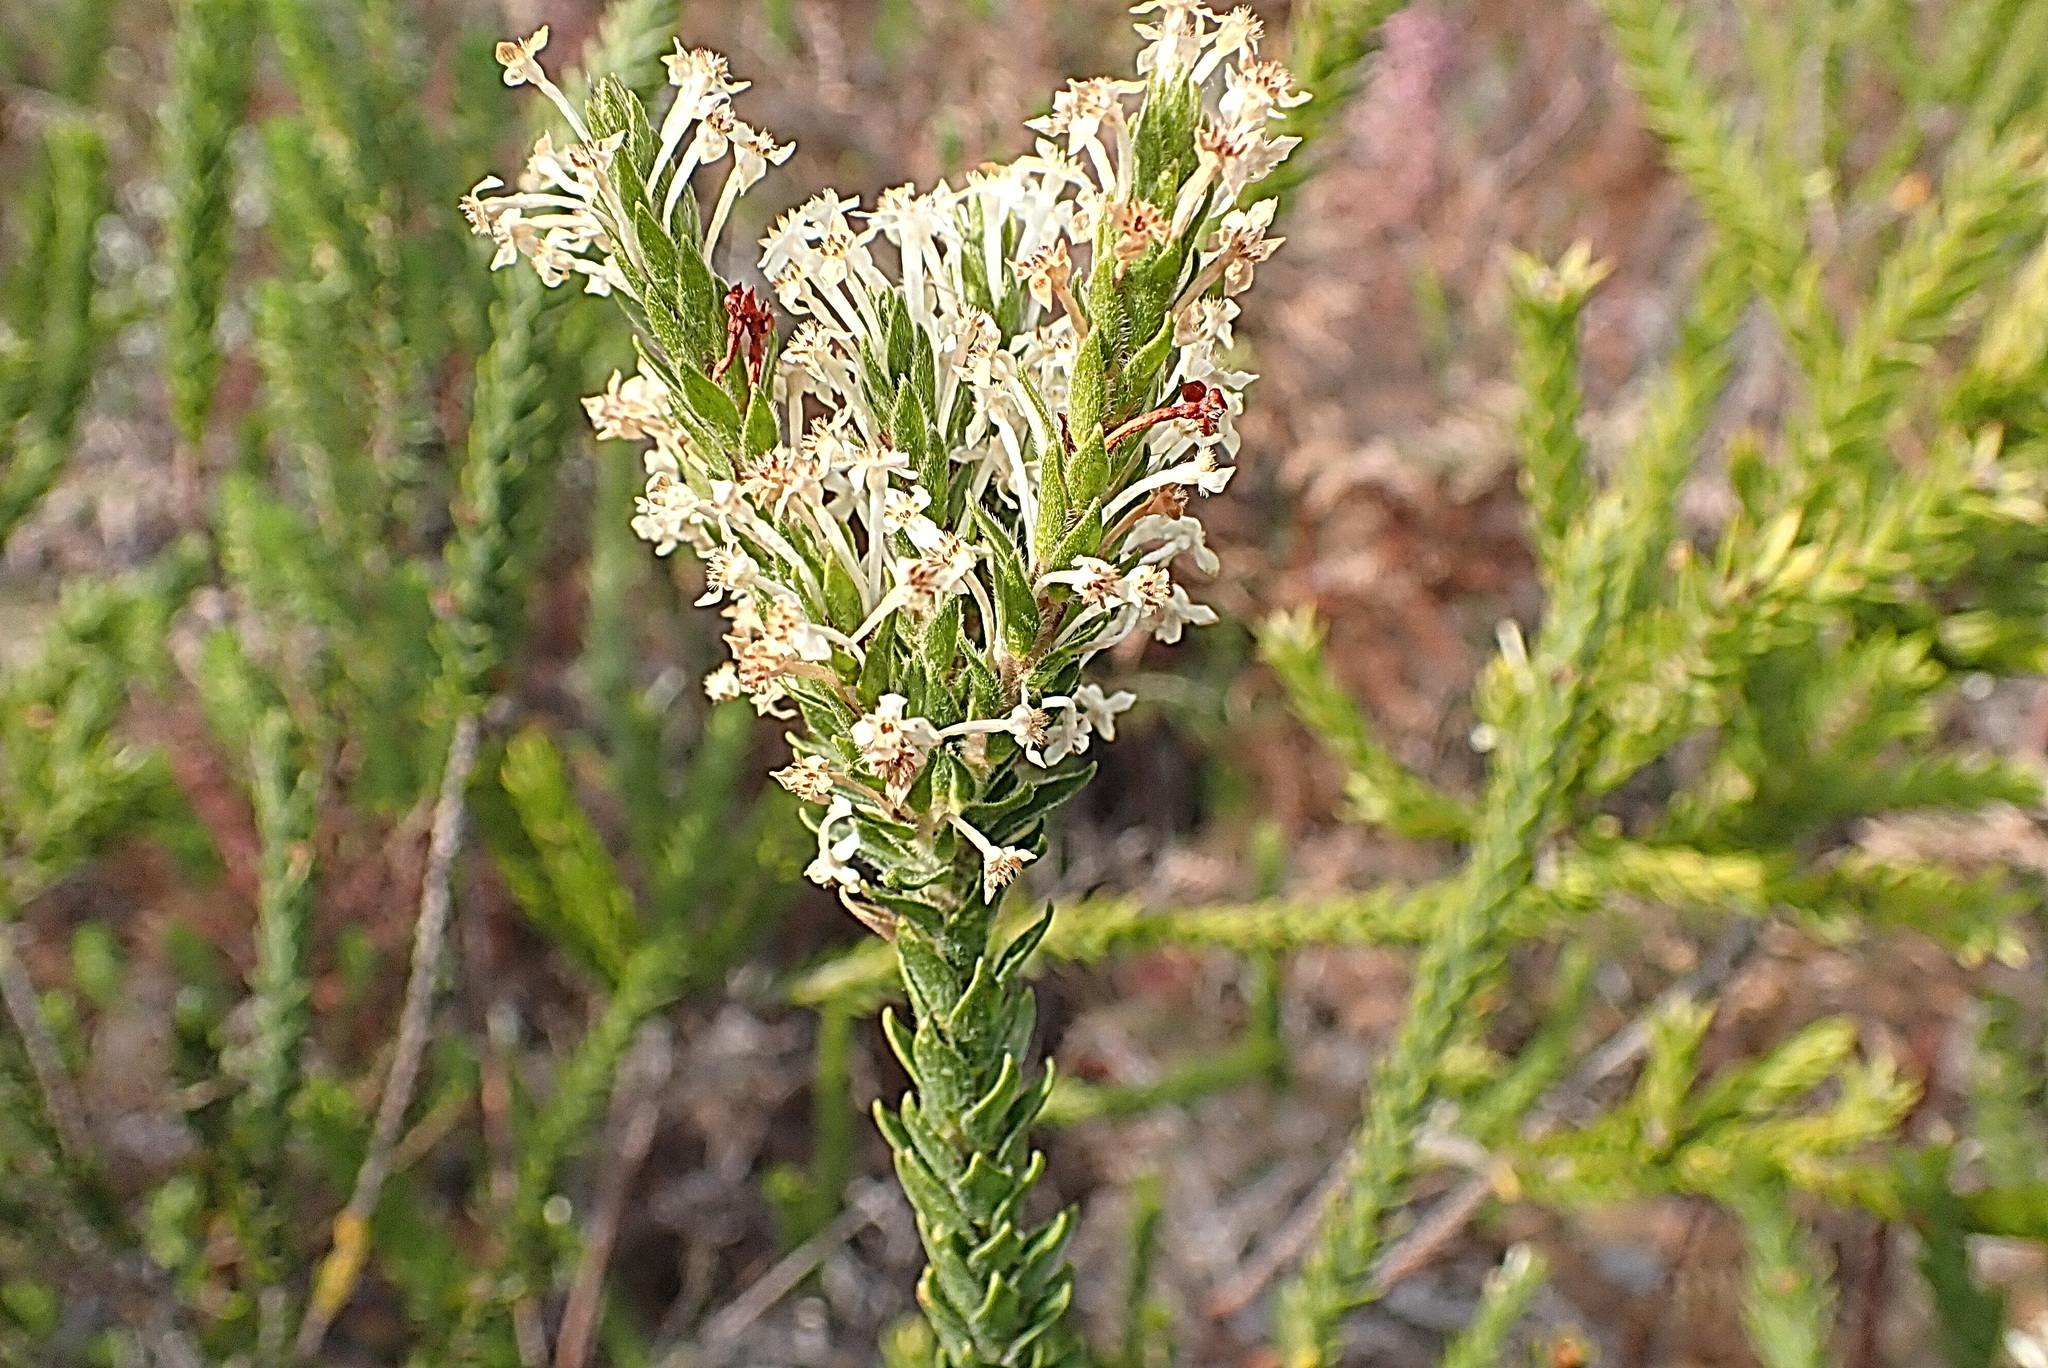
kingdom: Plantae
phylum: Tracheophyta
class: Magnoliopsida
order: Malvales
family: Thymelaeaceae
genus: Struthiola
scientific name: Struthiola hirsuta
